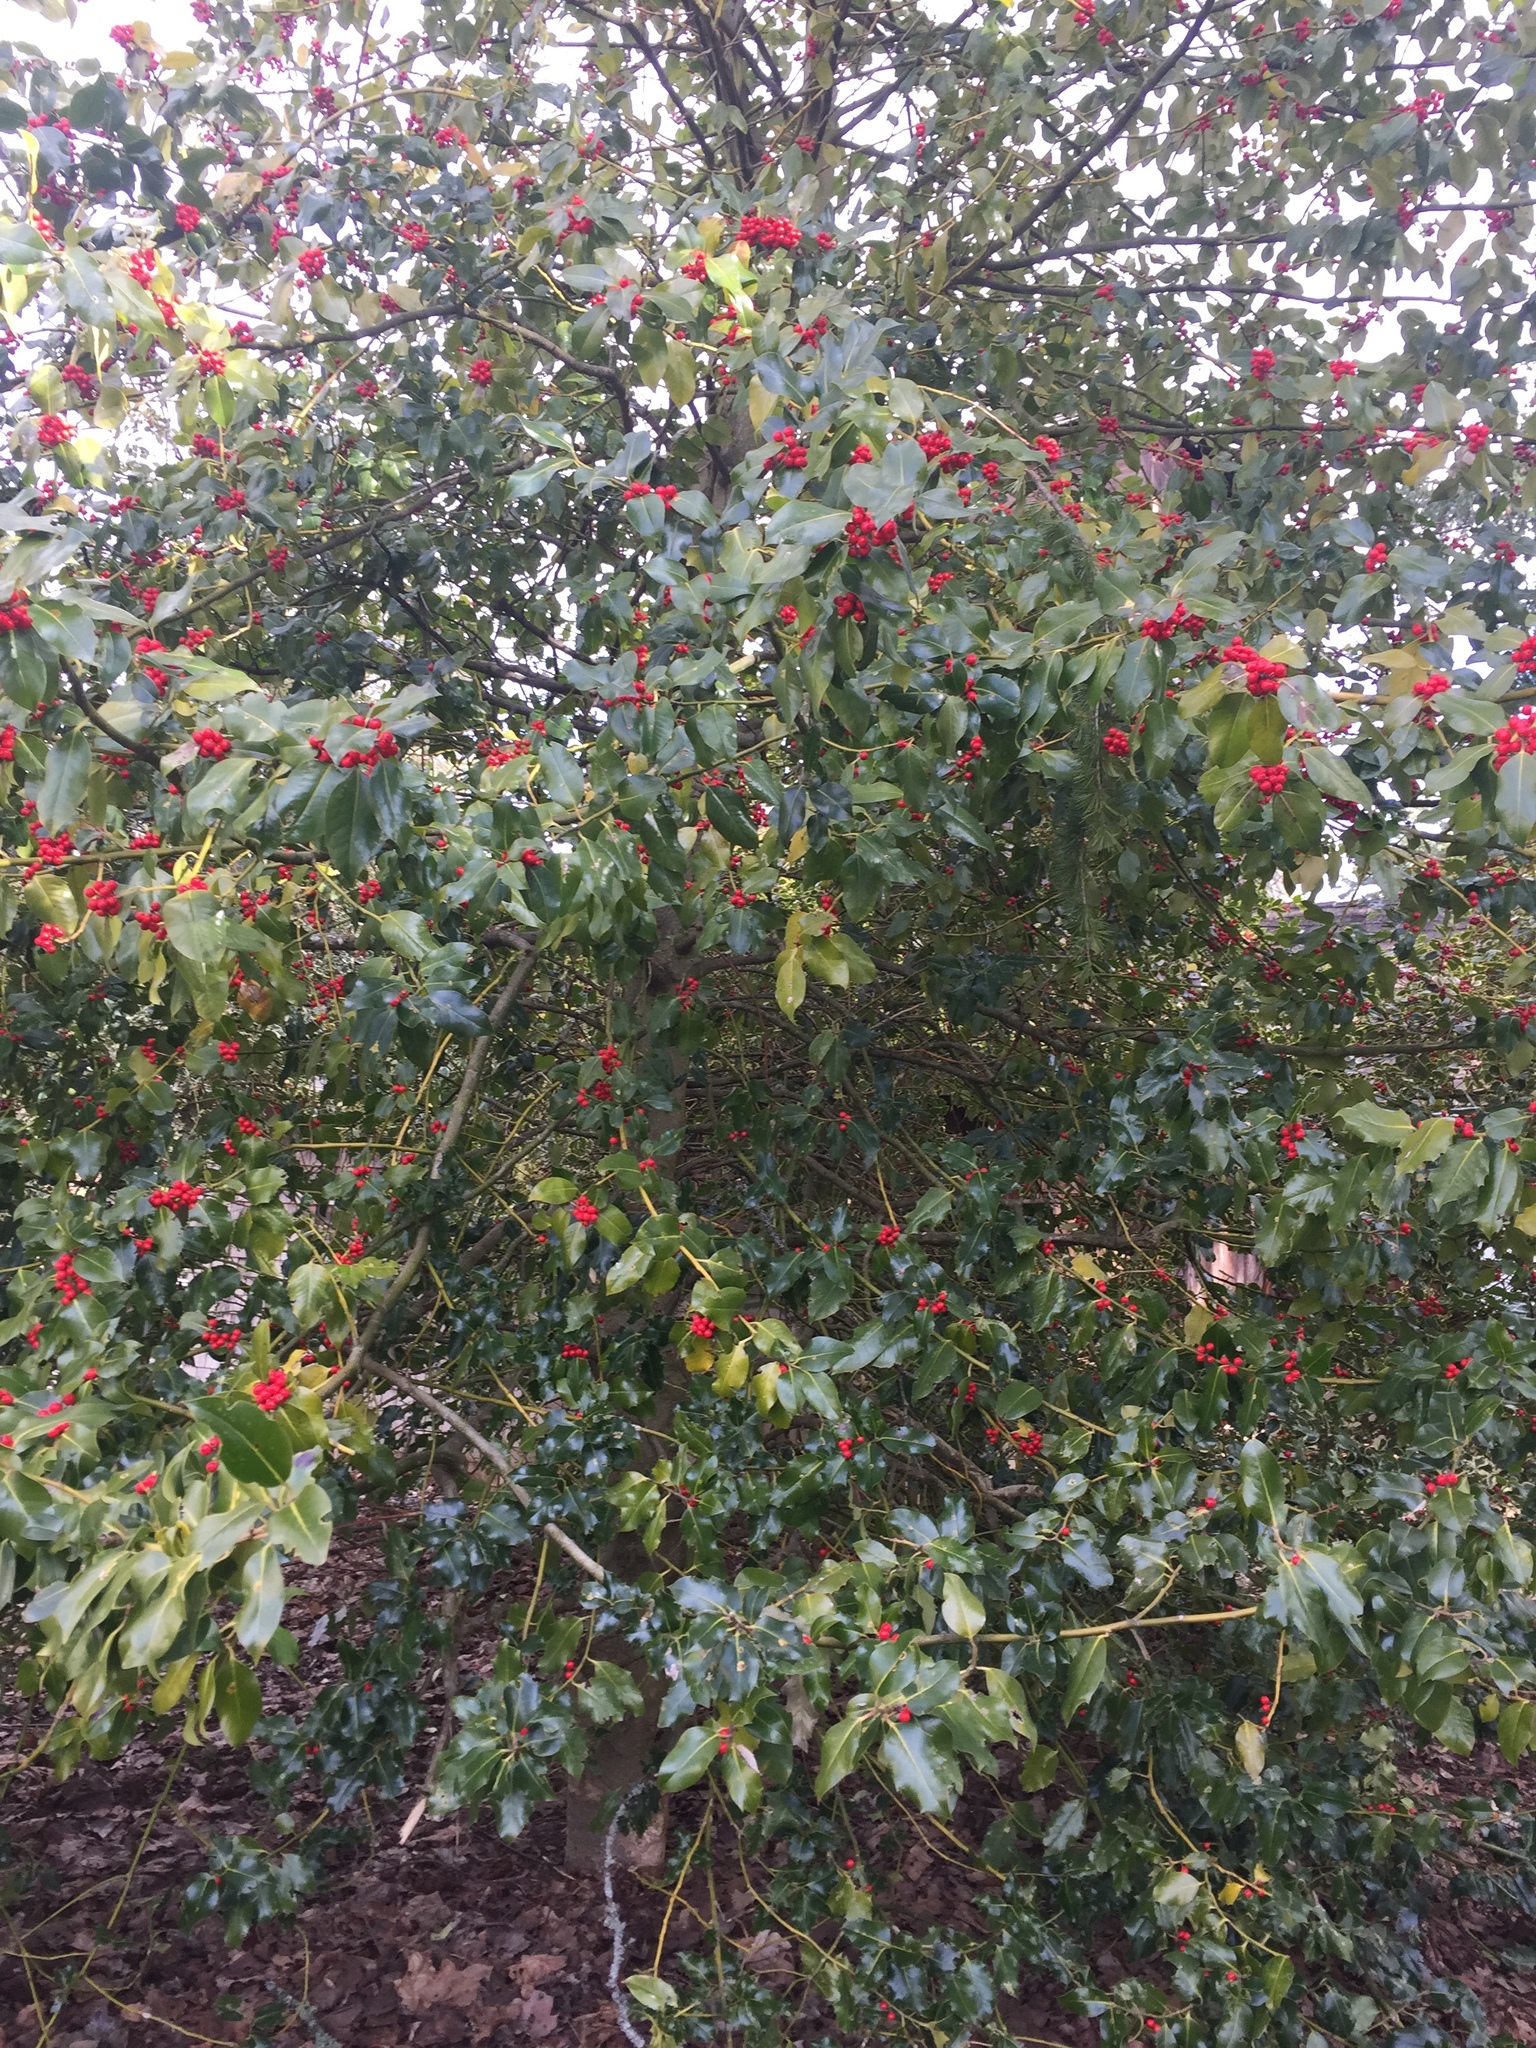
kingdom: Plantae
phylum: Tracheophyta
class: Magnoliopsida
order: Aquifoliales
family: Aquifoliaceae
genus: Ilex
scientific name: Ilex aquifolium
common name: English holly
